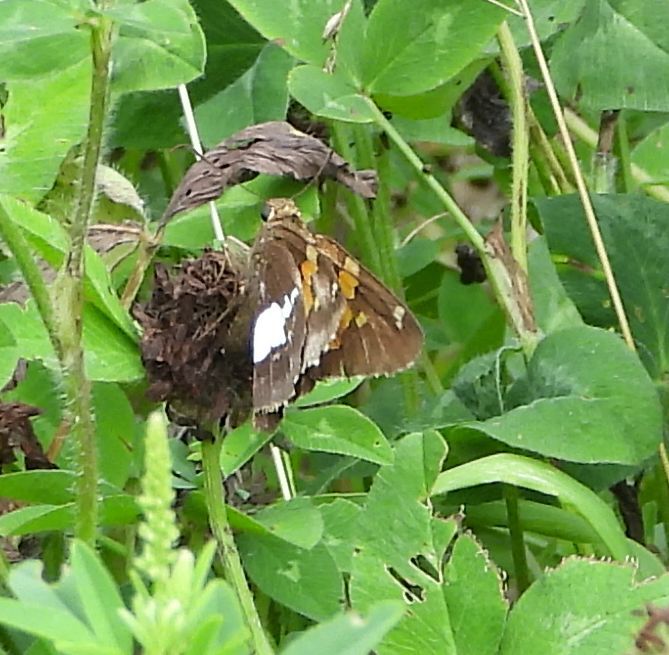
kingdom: Animalia
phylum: Arthropoda
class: Insecta
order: Lepidoptera
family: Hesperiidae
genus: Epargyreus
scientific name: Epargyreus clarus
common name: Silver-spotted skipper
